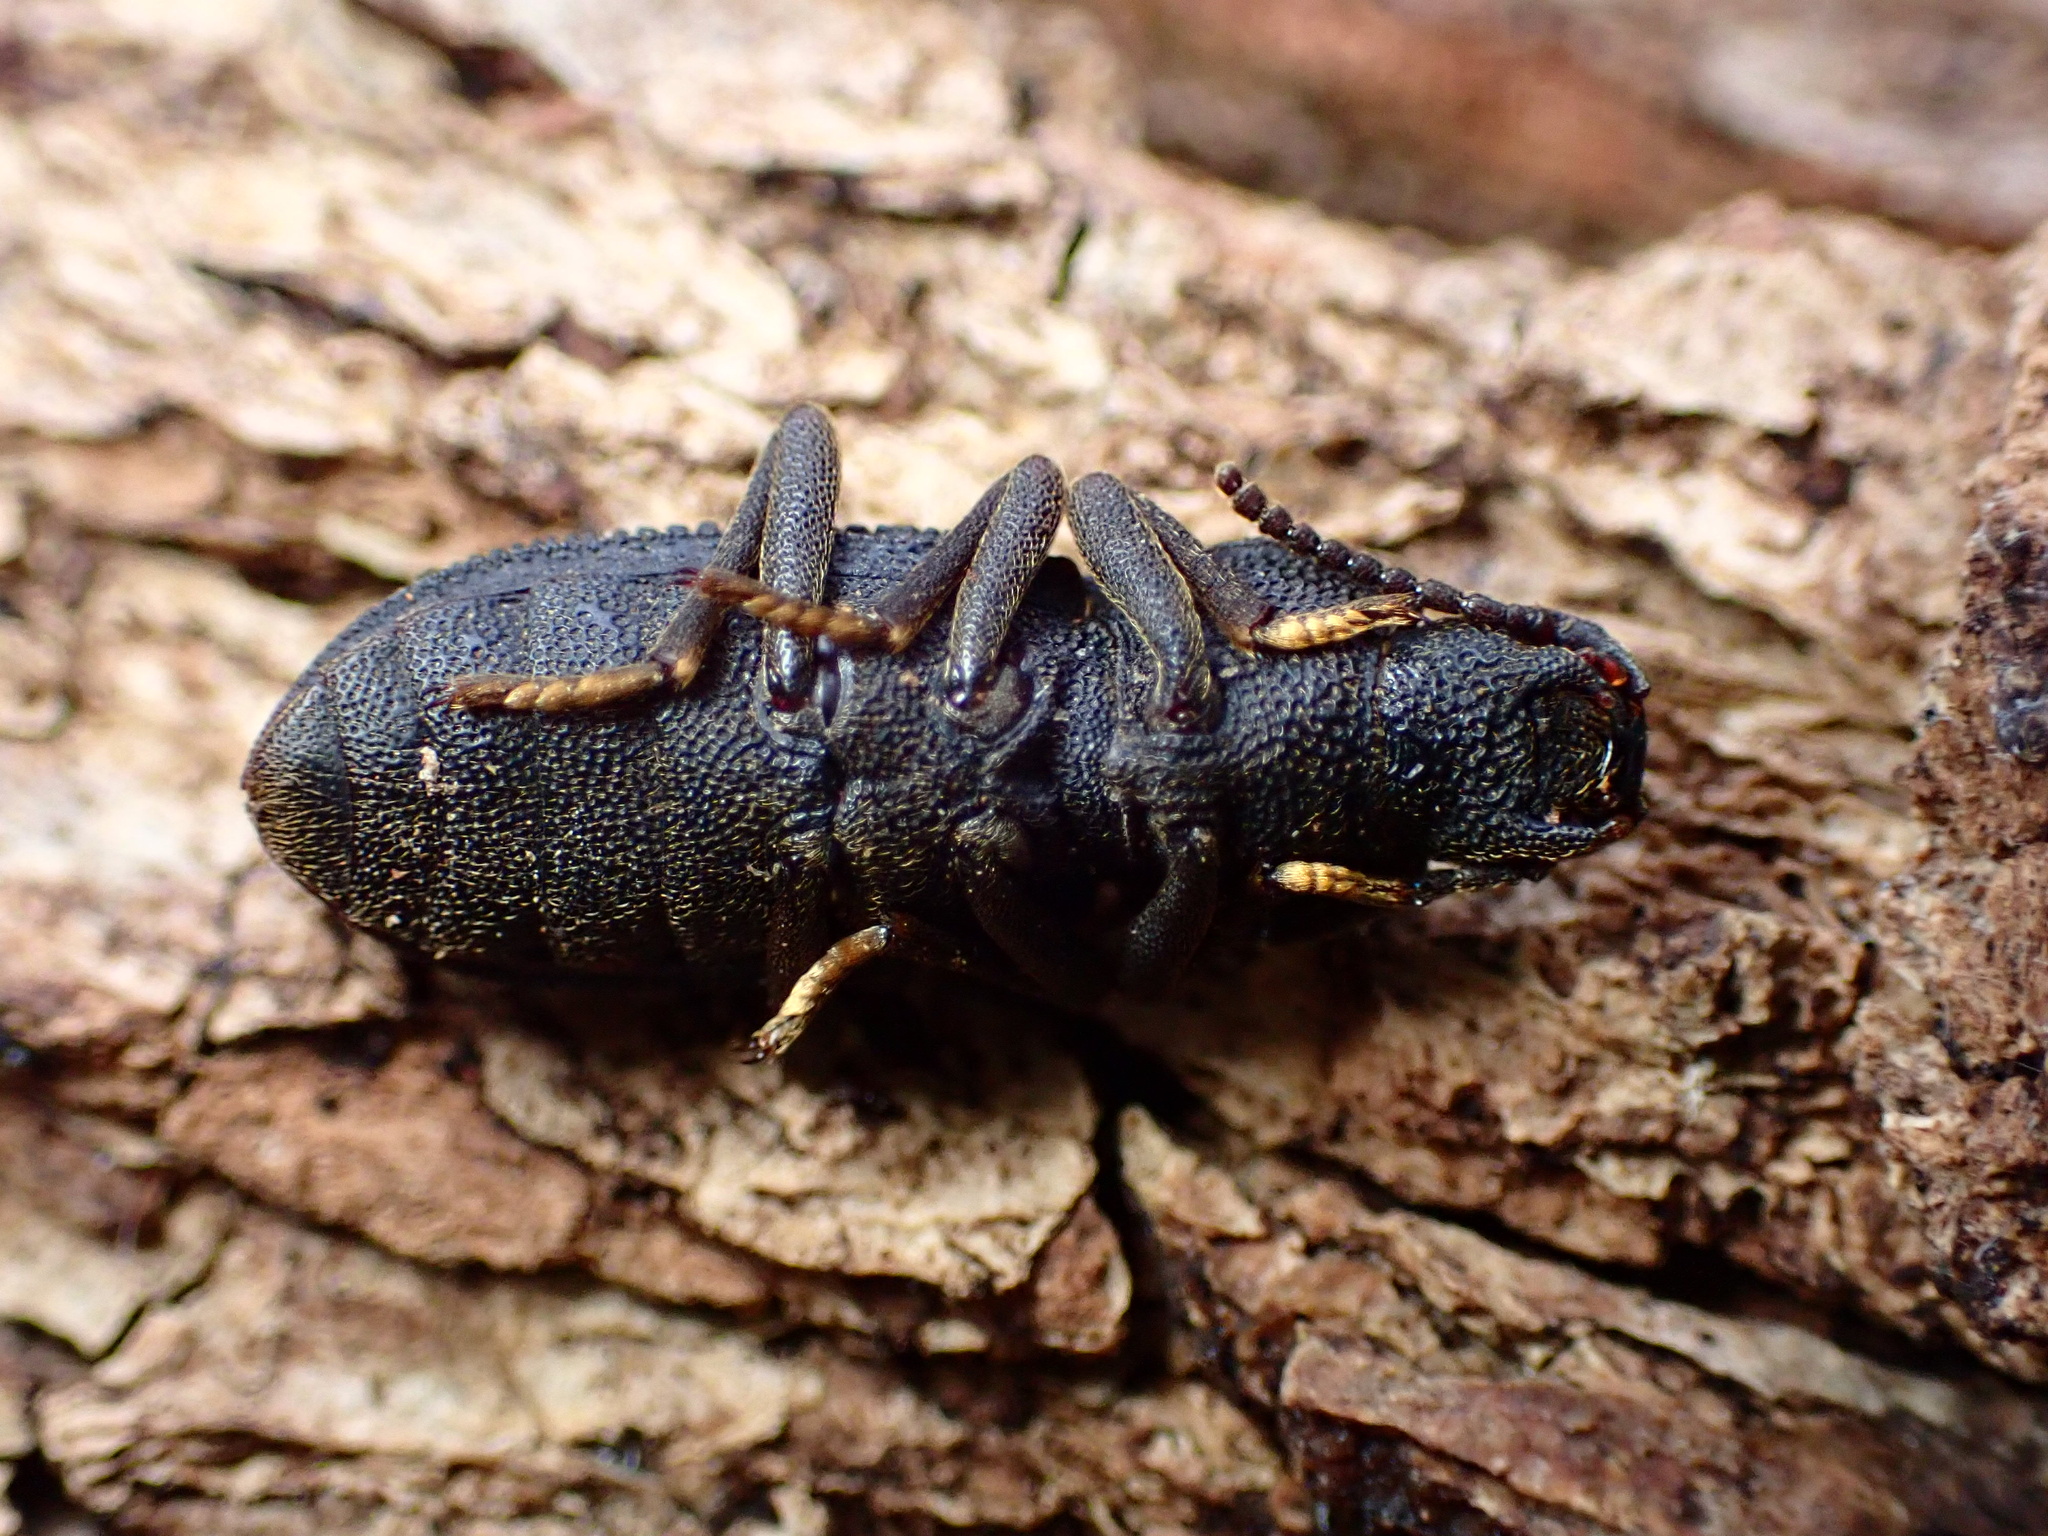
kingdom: Animalia
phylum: Arthropoda
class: Insecta
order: Coleoptera
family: Tenebrionidae
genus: Nyctoporis
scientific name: Nyctoporis carinata
